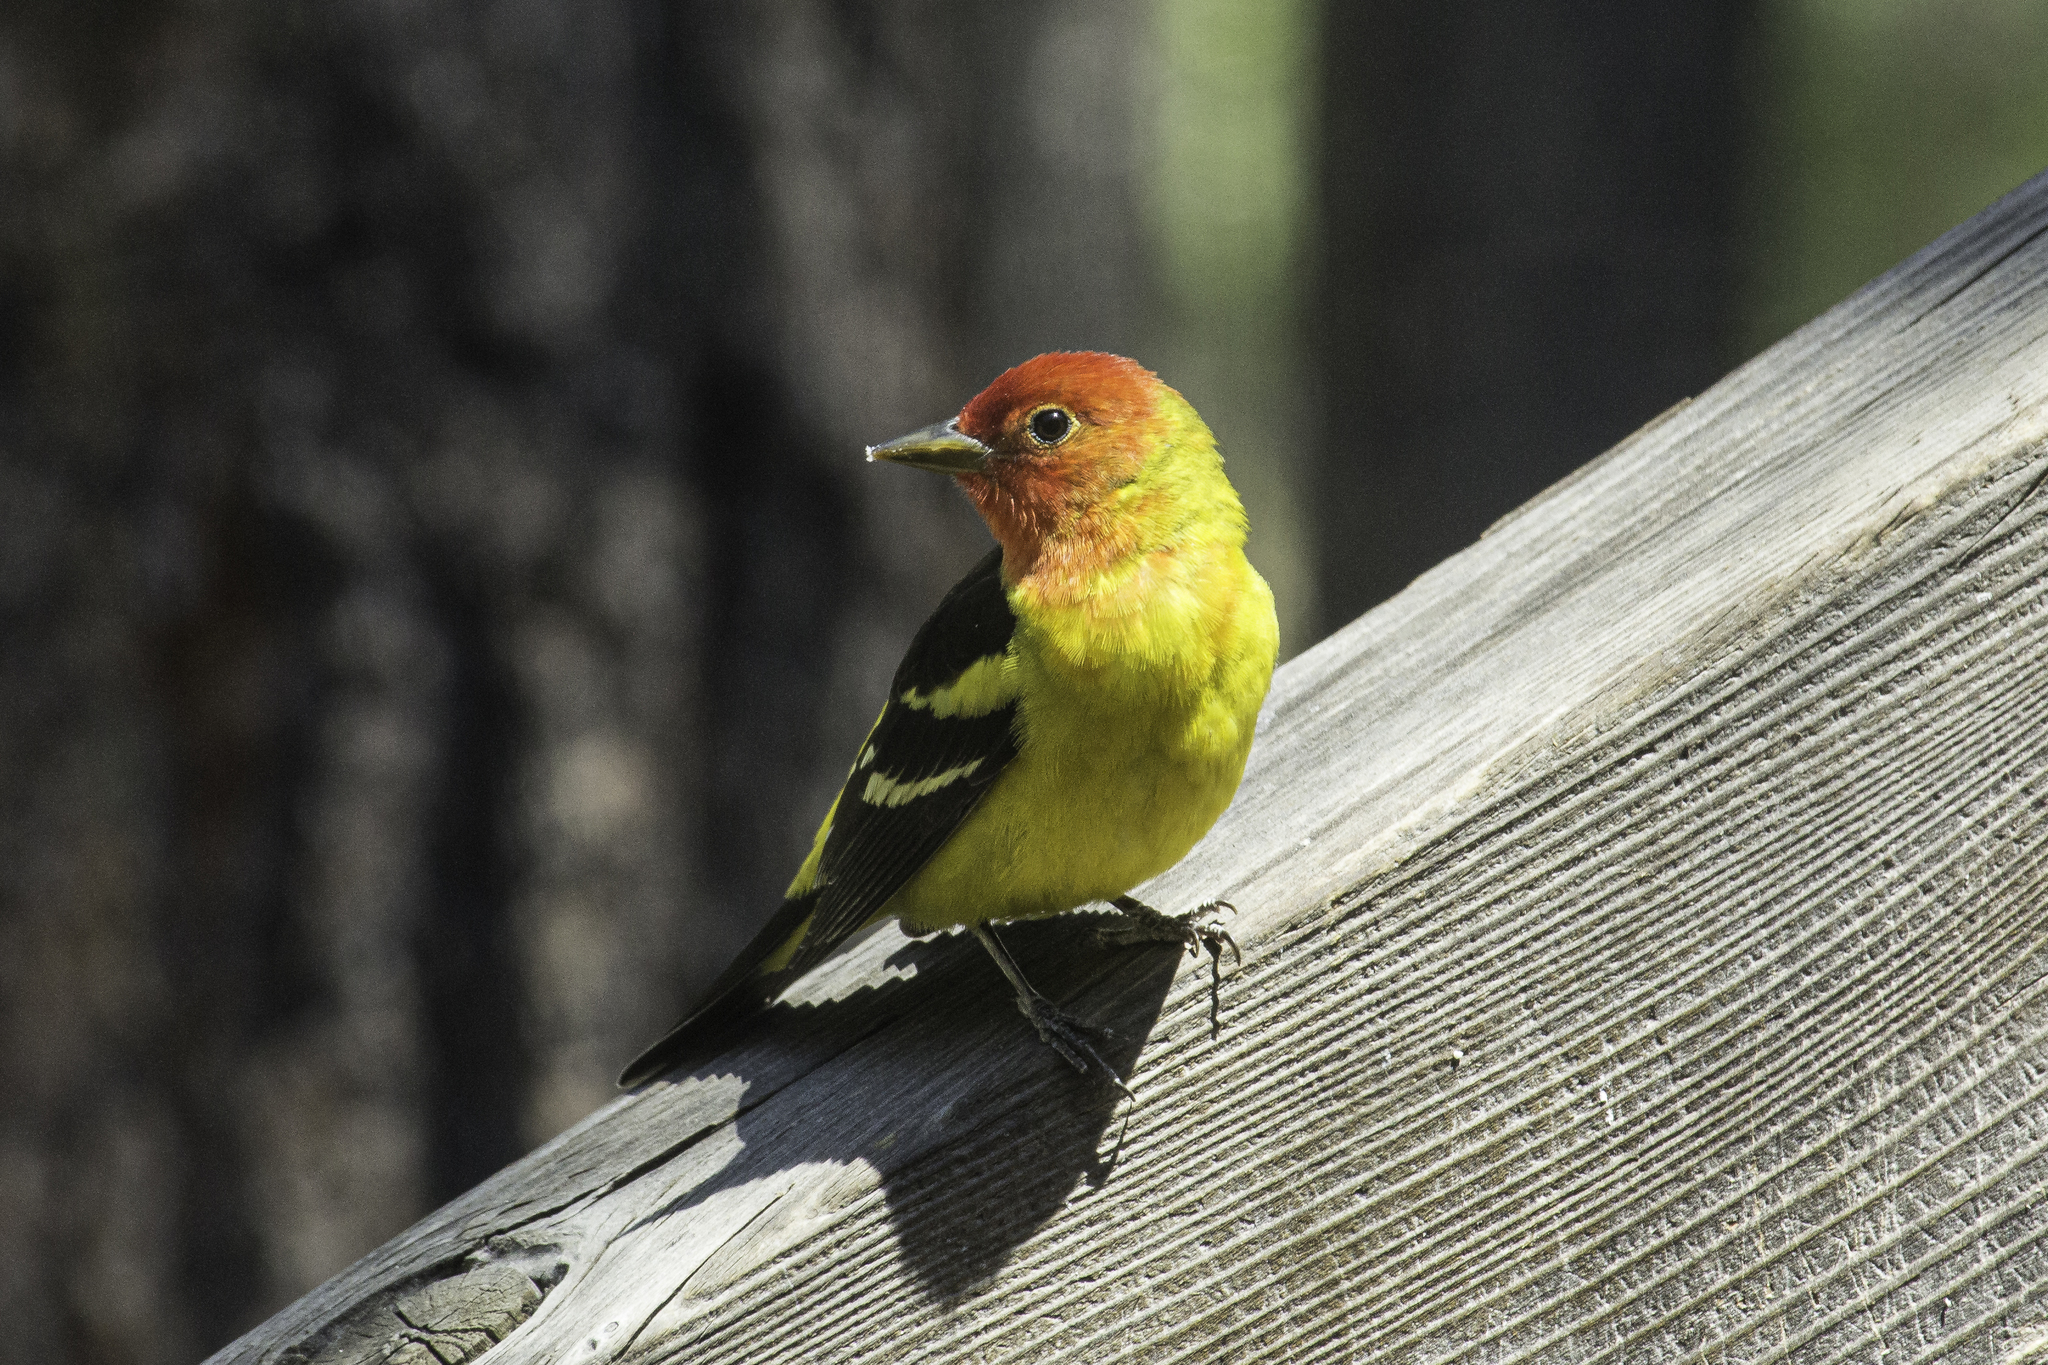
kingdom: Animalia
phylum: Chordata
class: Aves
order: Passeriformes
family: Cardinalidae
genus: Piranga
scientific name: Piranga ludoviciana
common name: Western tanager
